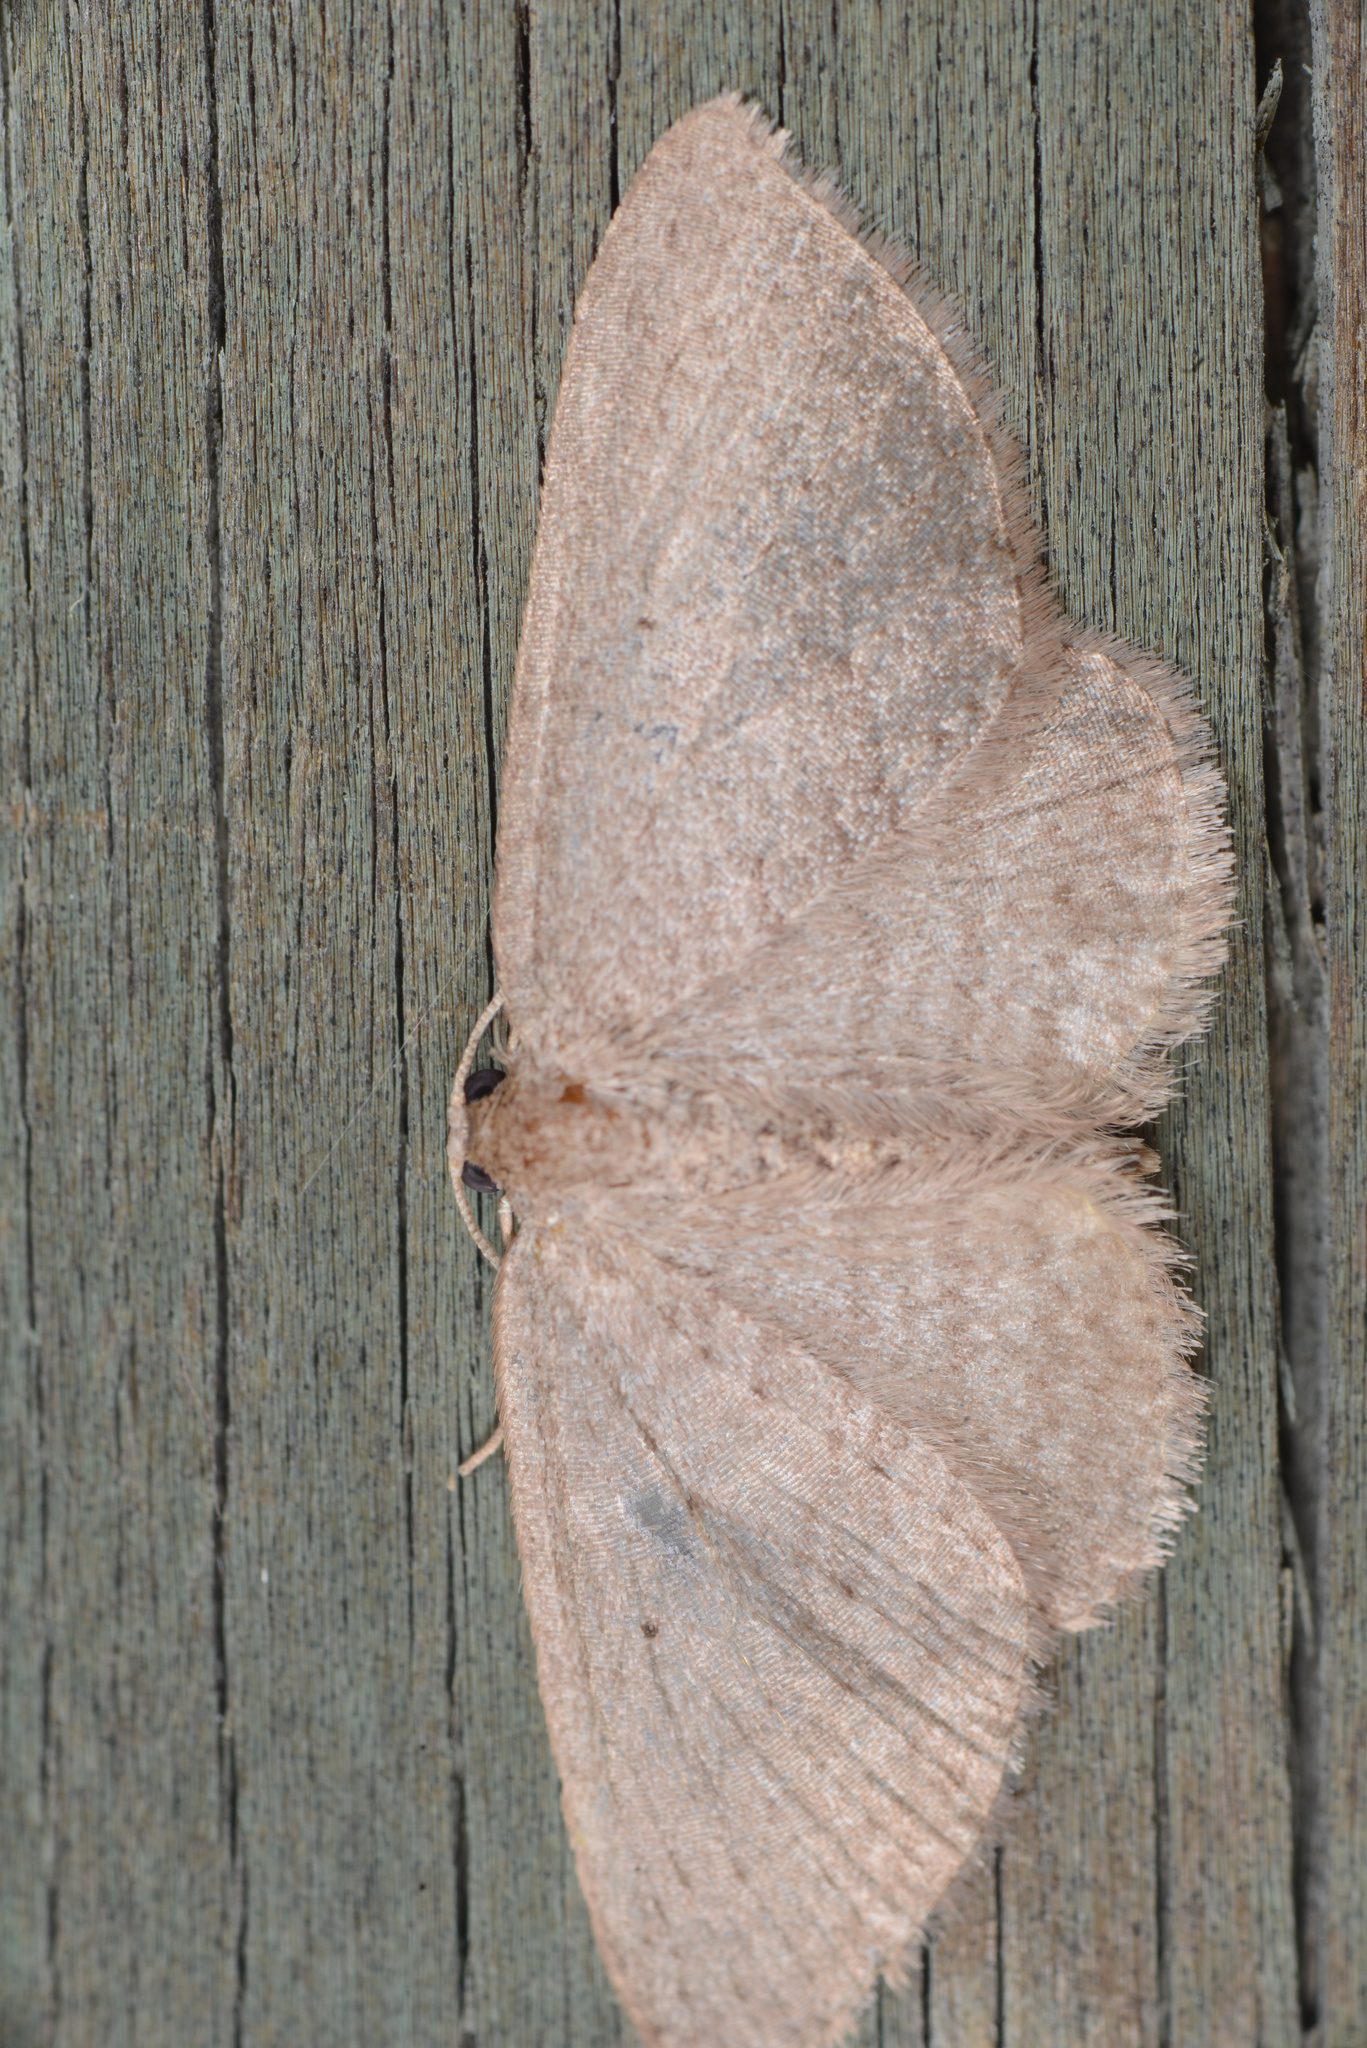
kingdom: Animalia
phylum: Arthropoda
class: Insecta
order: Lepidoptera
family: Geometridae
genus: Poecilasthena
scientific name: Poecilasthena schistaria
